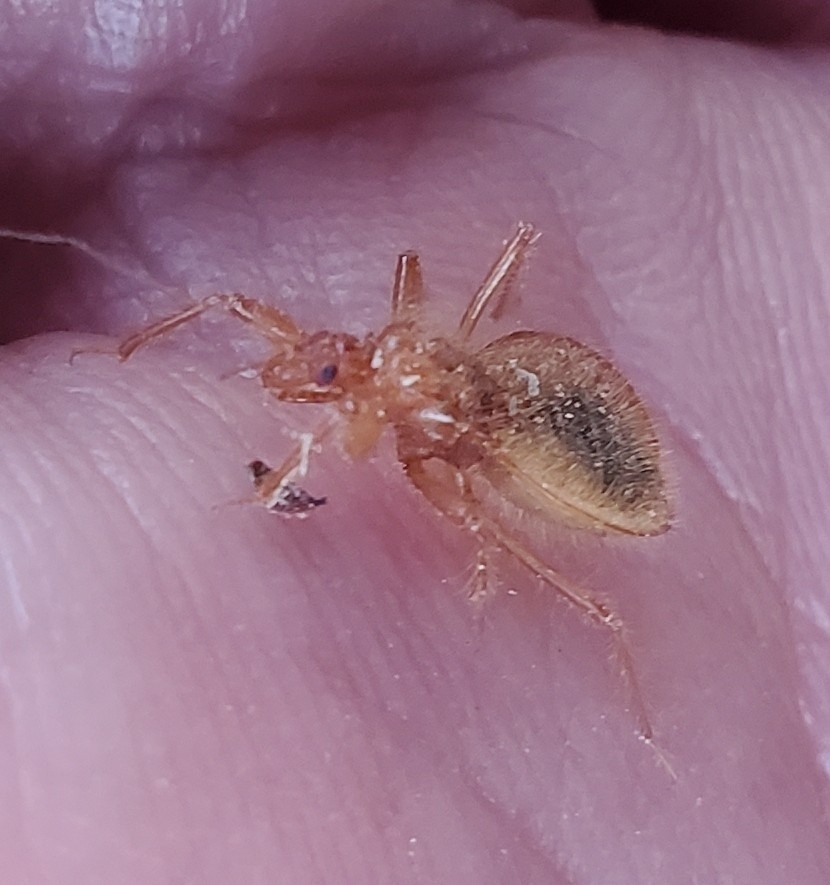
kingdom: Animalia
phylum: Arthropoda
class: Insecta
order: Hemiptera
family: Reduviidae
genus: Reduvius
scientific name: Reduvius sonoraensis
